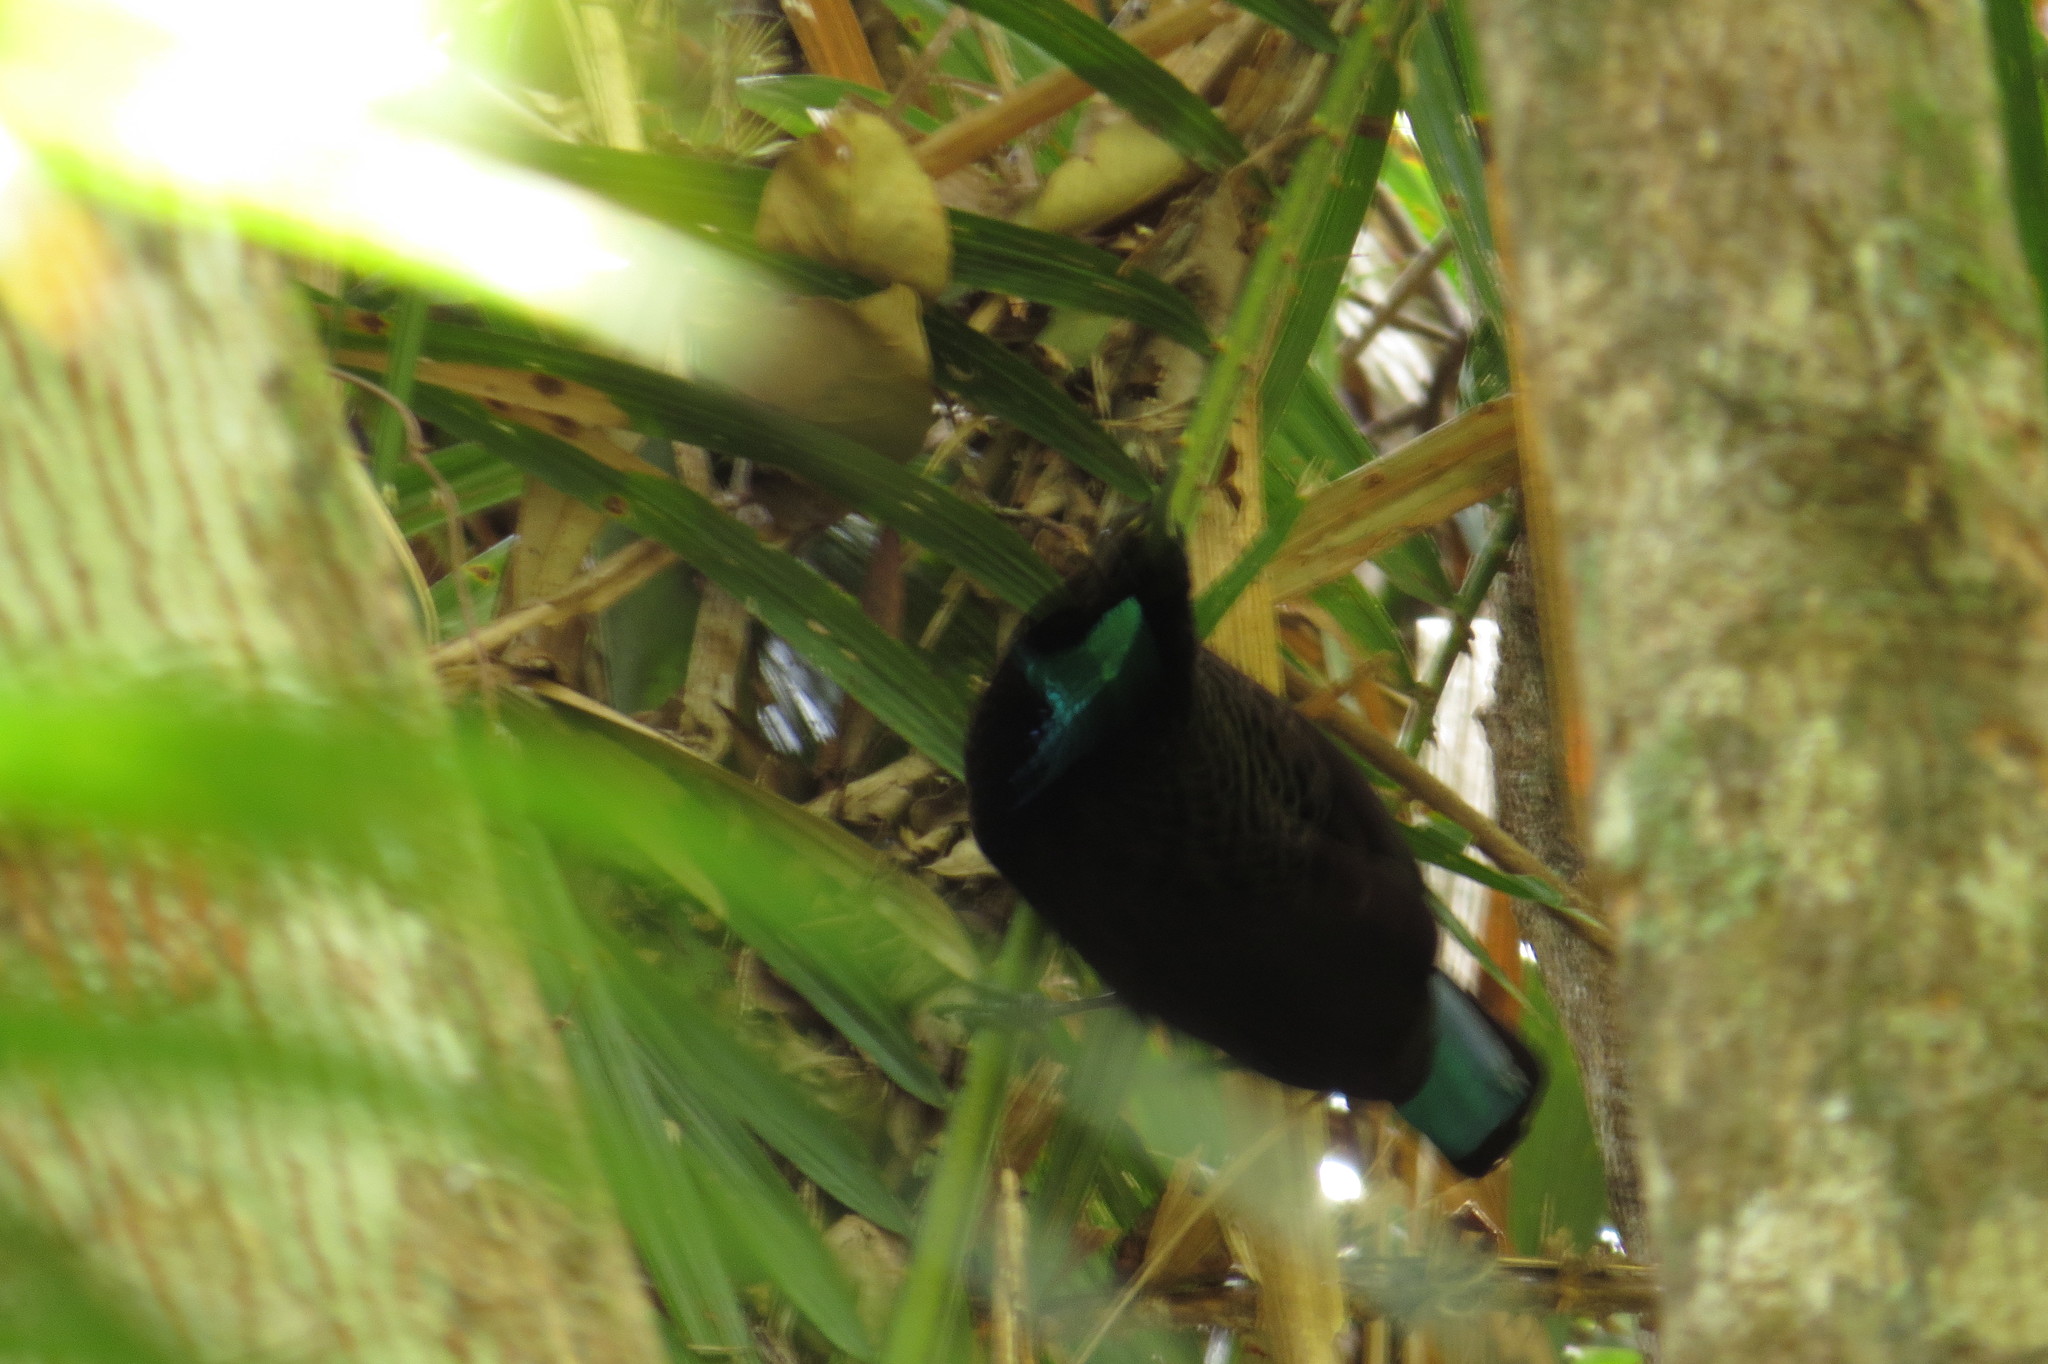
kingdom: Animalia
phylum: Chordata
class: Aves
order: Passeriformes
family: Paradisaeidae
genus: Ptiloris
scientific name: Ptiloris victoriae
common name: Victoria's riflebird
